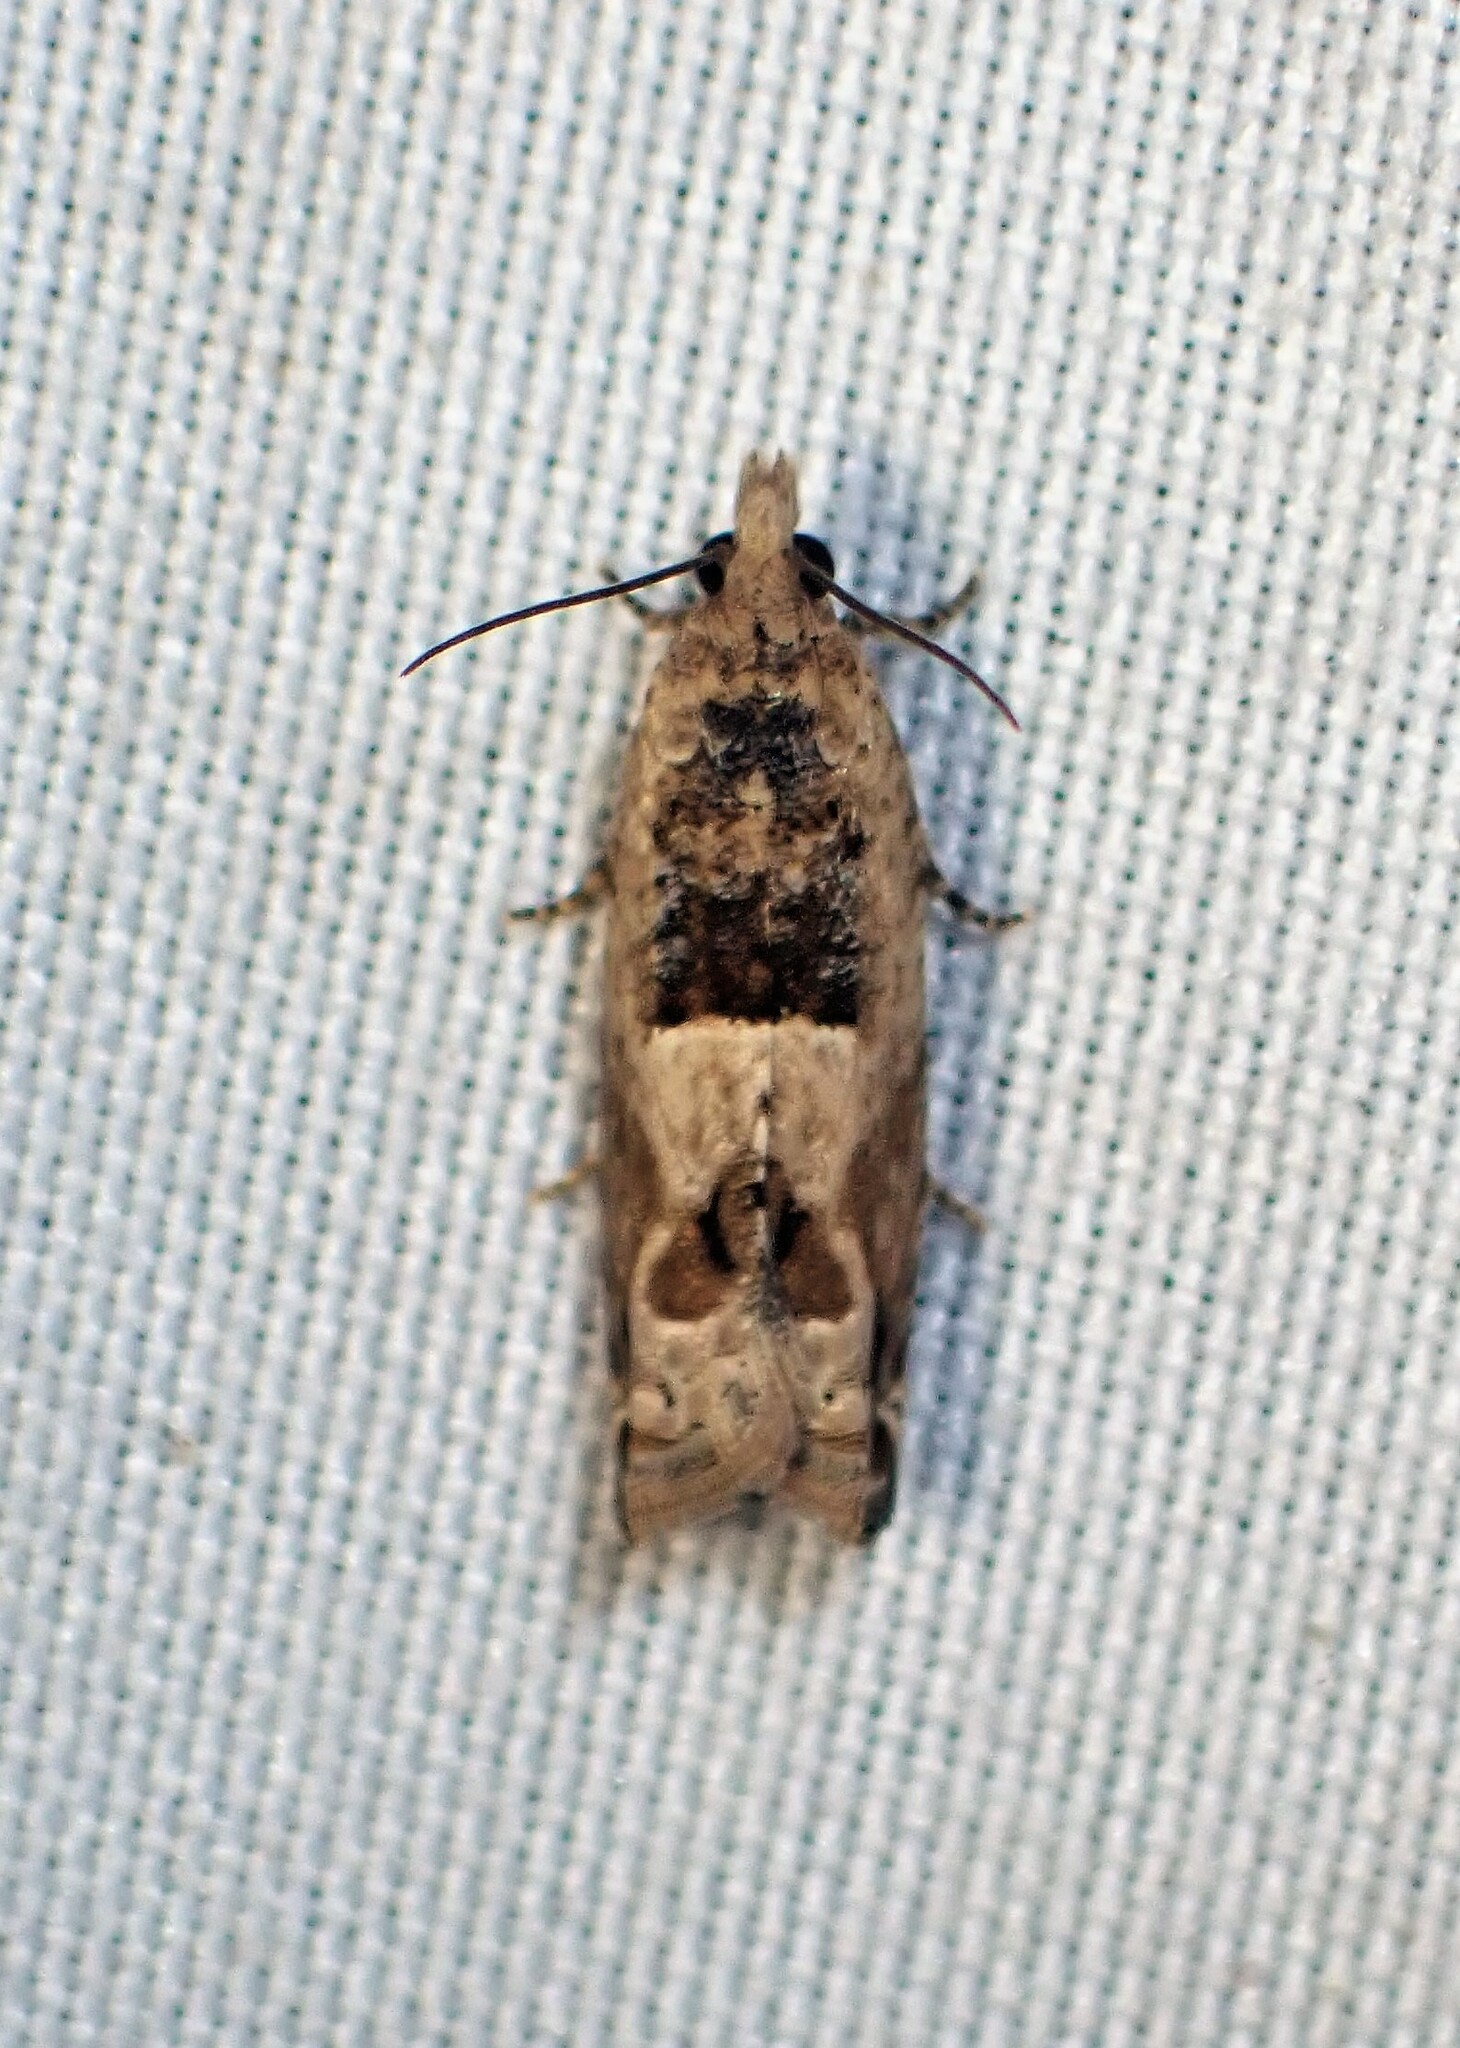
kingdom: Animalia
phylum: Arthropoda
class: Insecta
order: Lepidoptera
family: Tortricidae
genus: Crocidosema
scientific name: Crocidosema plebejana
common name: Southern bell
